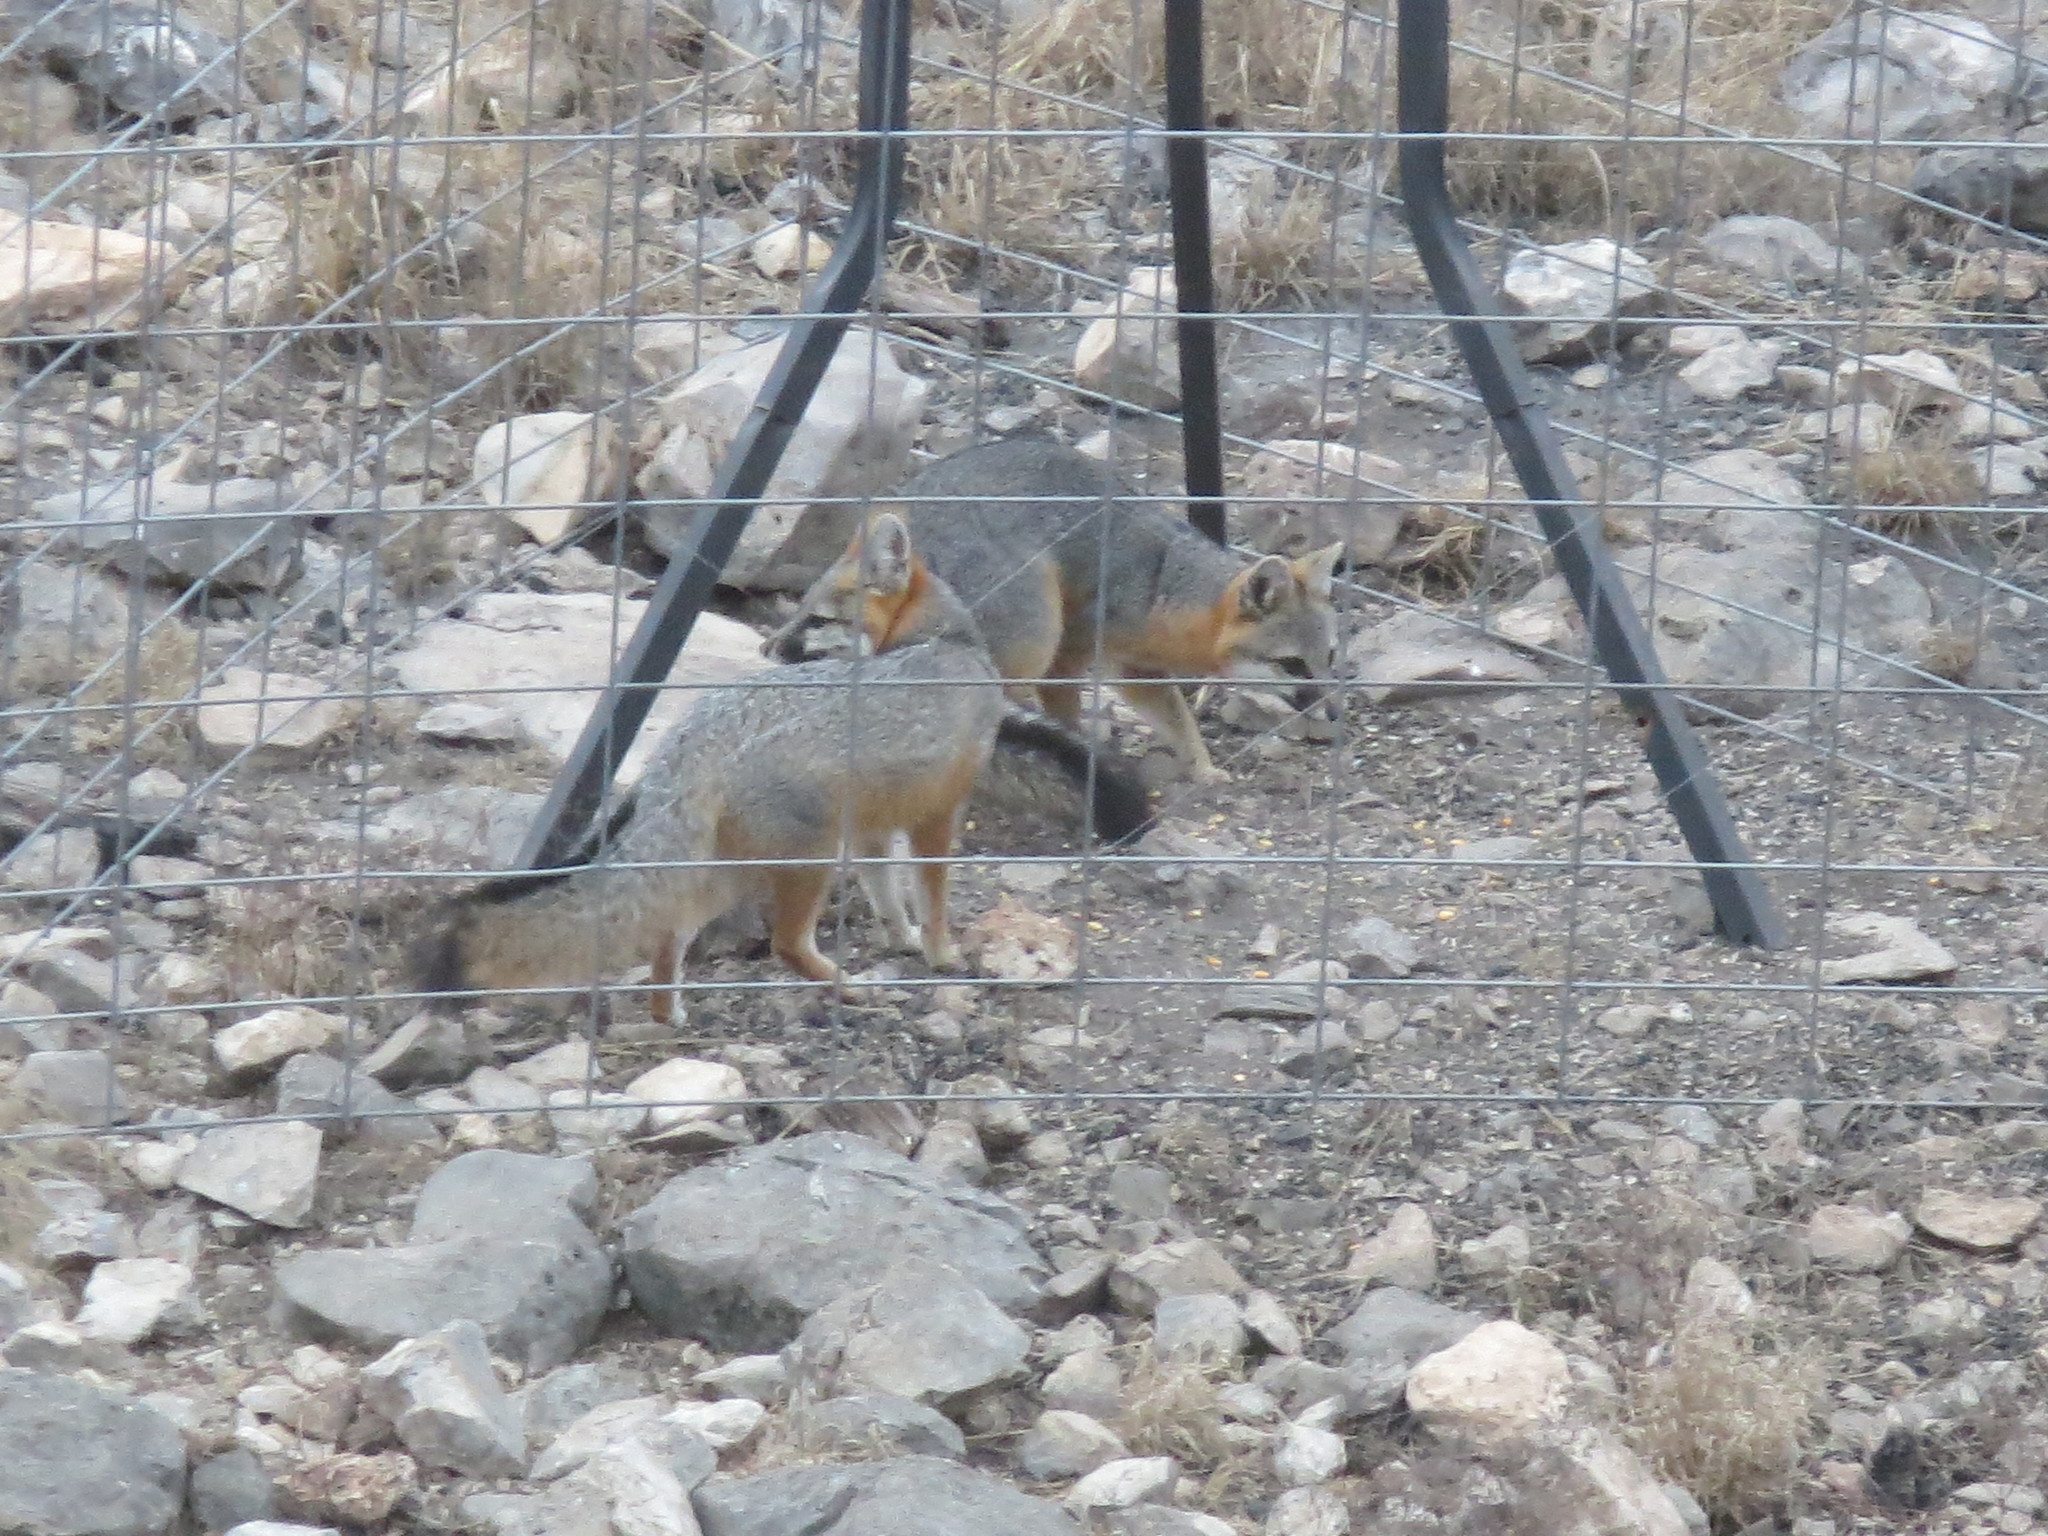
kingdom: Animalia
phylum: Chordata
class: Mammalia
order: Carnivora
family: Canidae
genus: Urocyon
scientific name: Urocyon cinereoargenteus
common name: Gray fox
